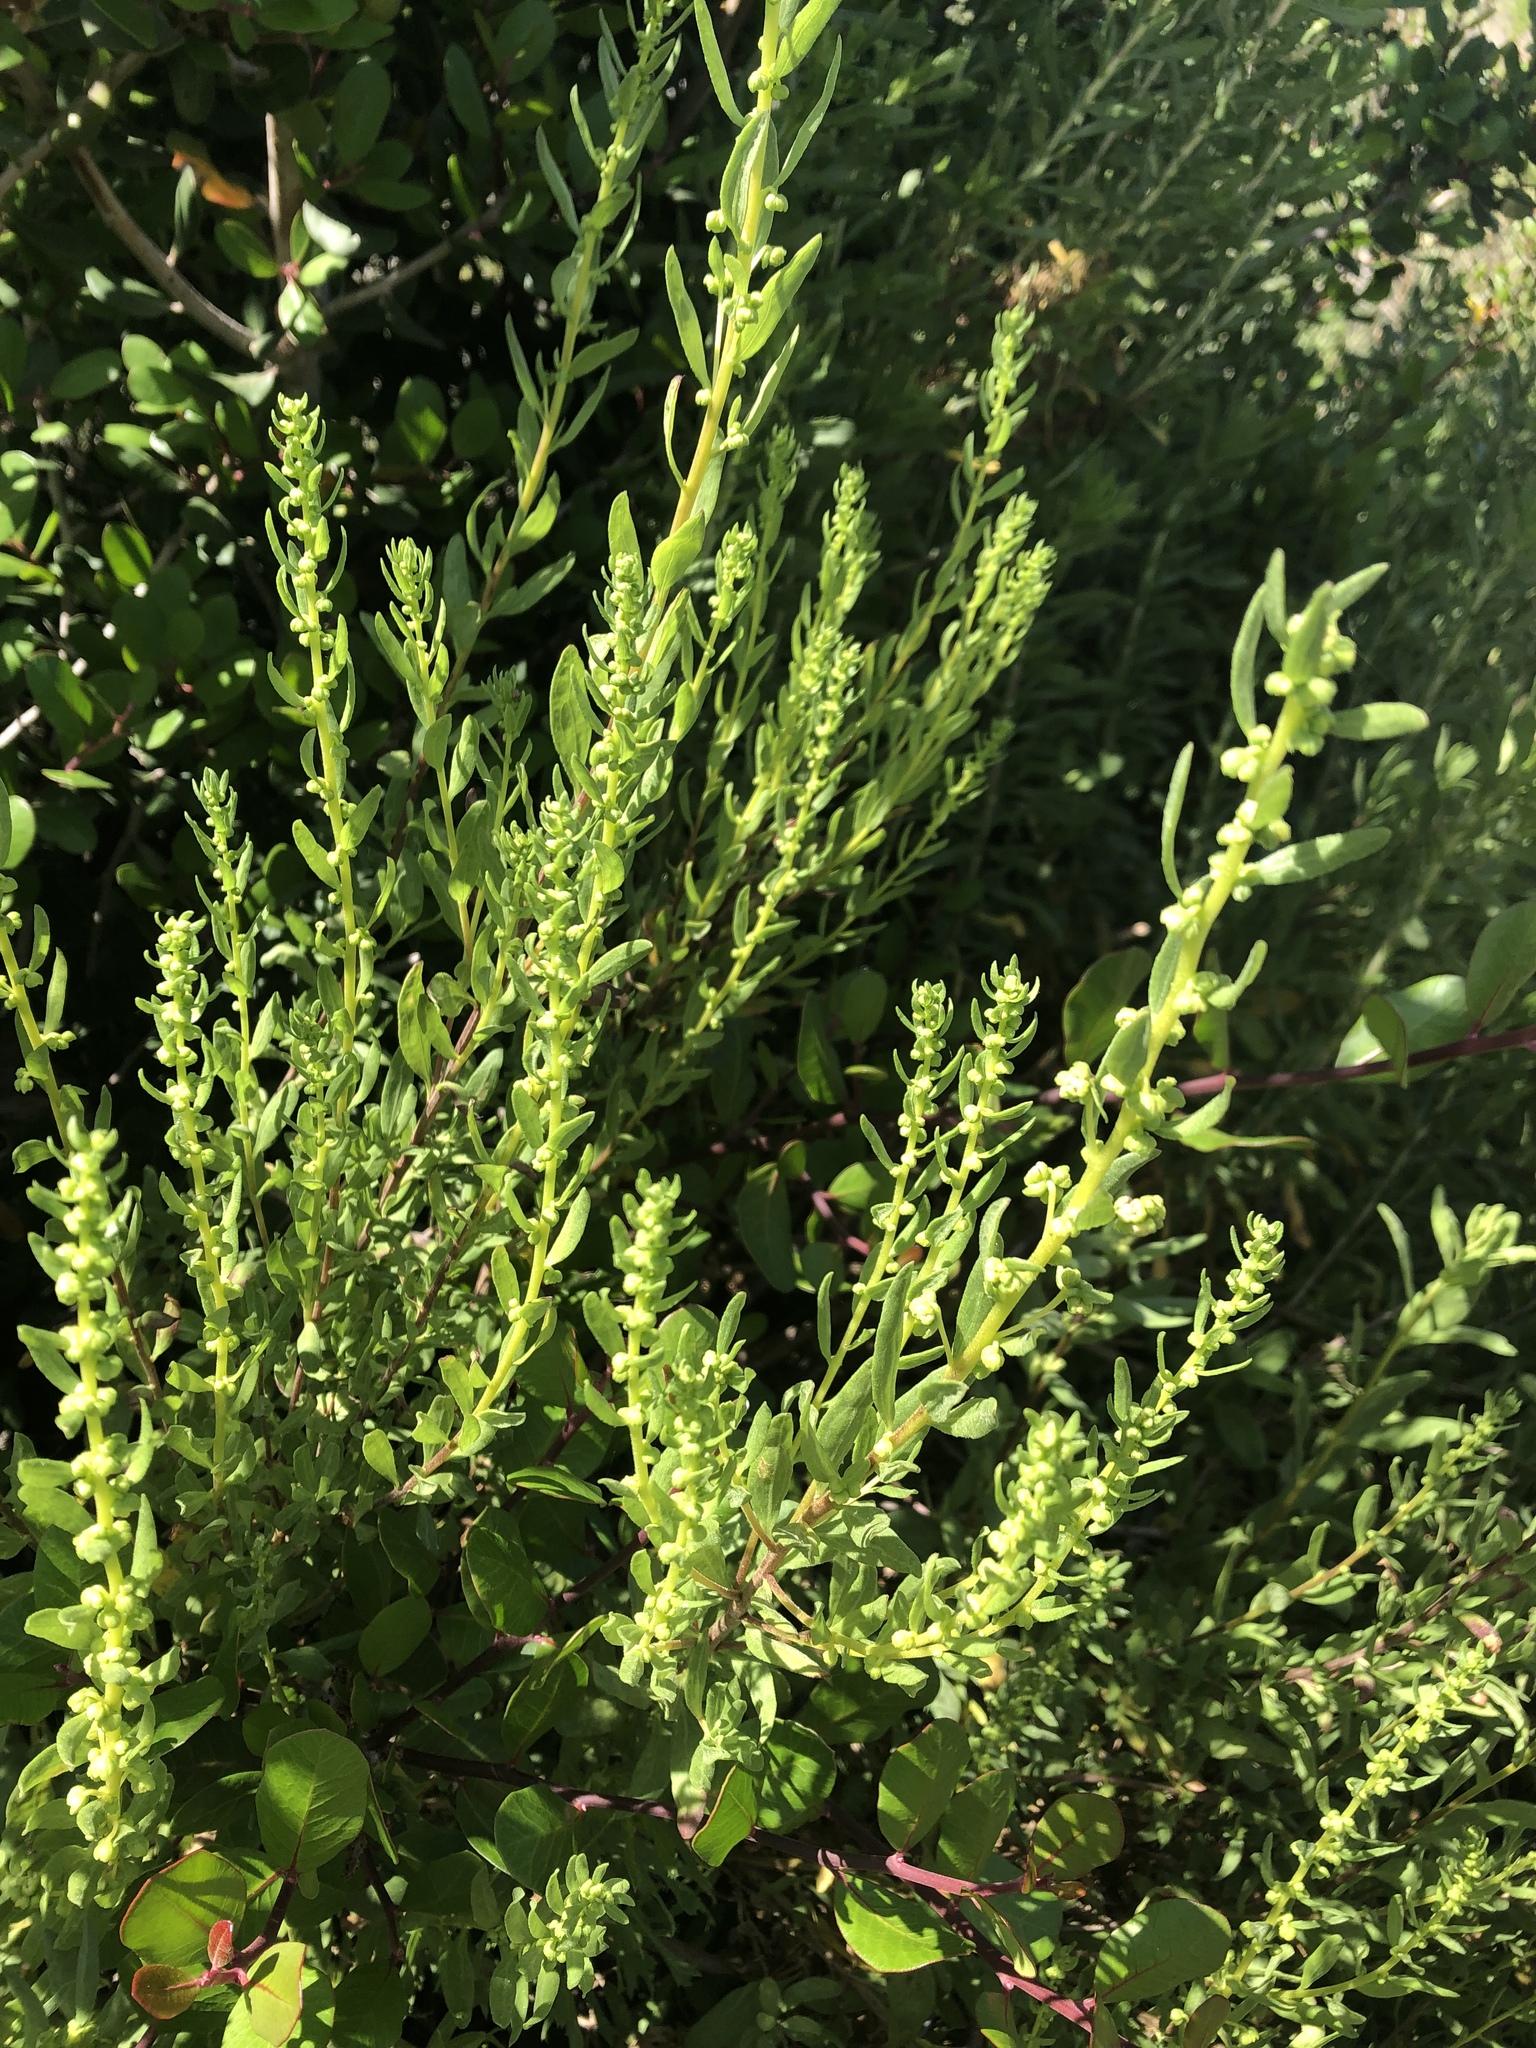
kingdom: Plantae
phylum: Tracheophyta
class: Magnoliopsida
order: Asterales
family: Asteraceae
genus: Iva
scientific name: Iva hayesiana
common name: San diego marsh-elder
